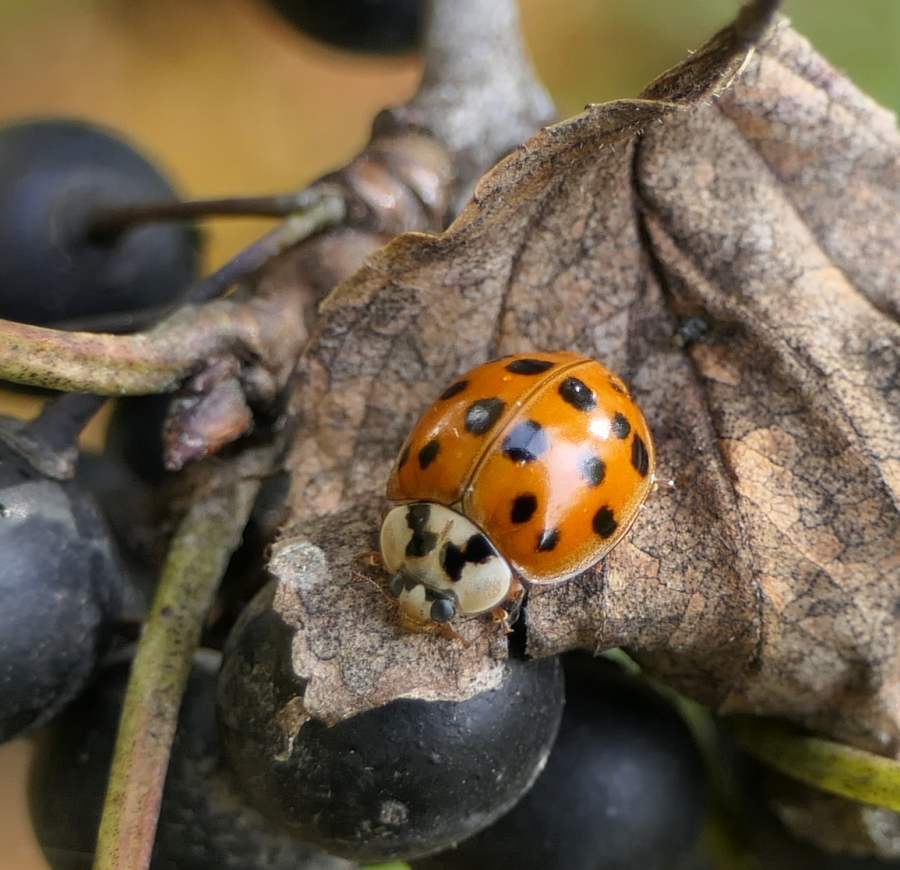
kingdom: Animalia
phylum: Arthropoda
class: Insecta
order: Coleoptera
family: Coccinellidae
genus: Harmonia
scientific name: Harmonia axyridis
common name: Harlequin ladybird
